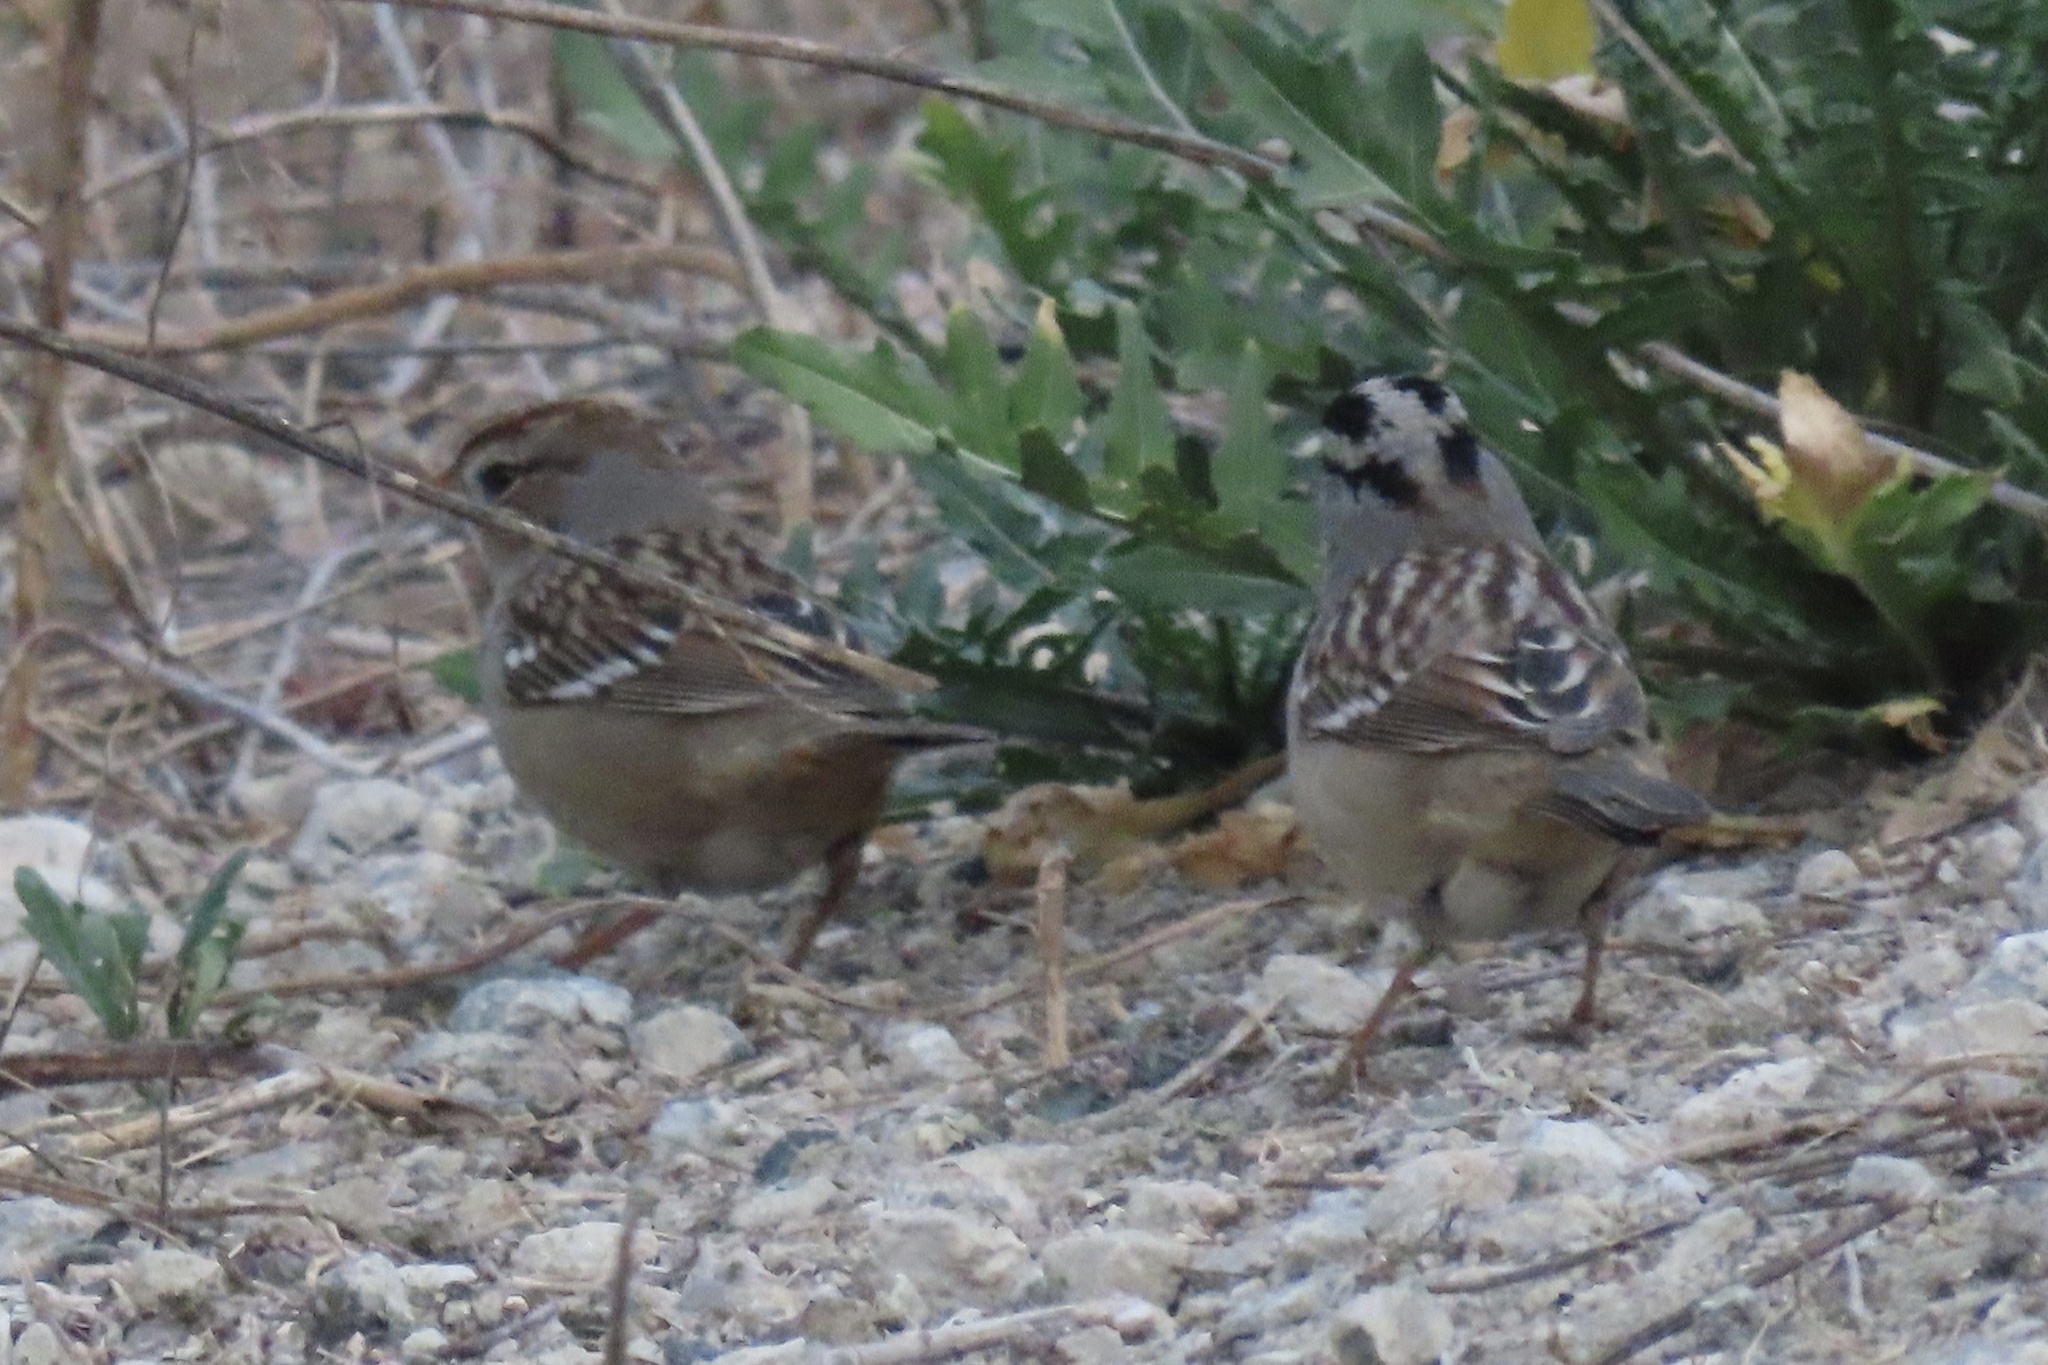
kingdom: Animalia
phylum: Chordata
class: Aves
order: Passeriformes
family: Passerellidae
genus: Zonotrichia
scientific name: Zonotrichia leucophrys
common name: White-crowned sparrow
